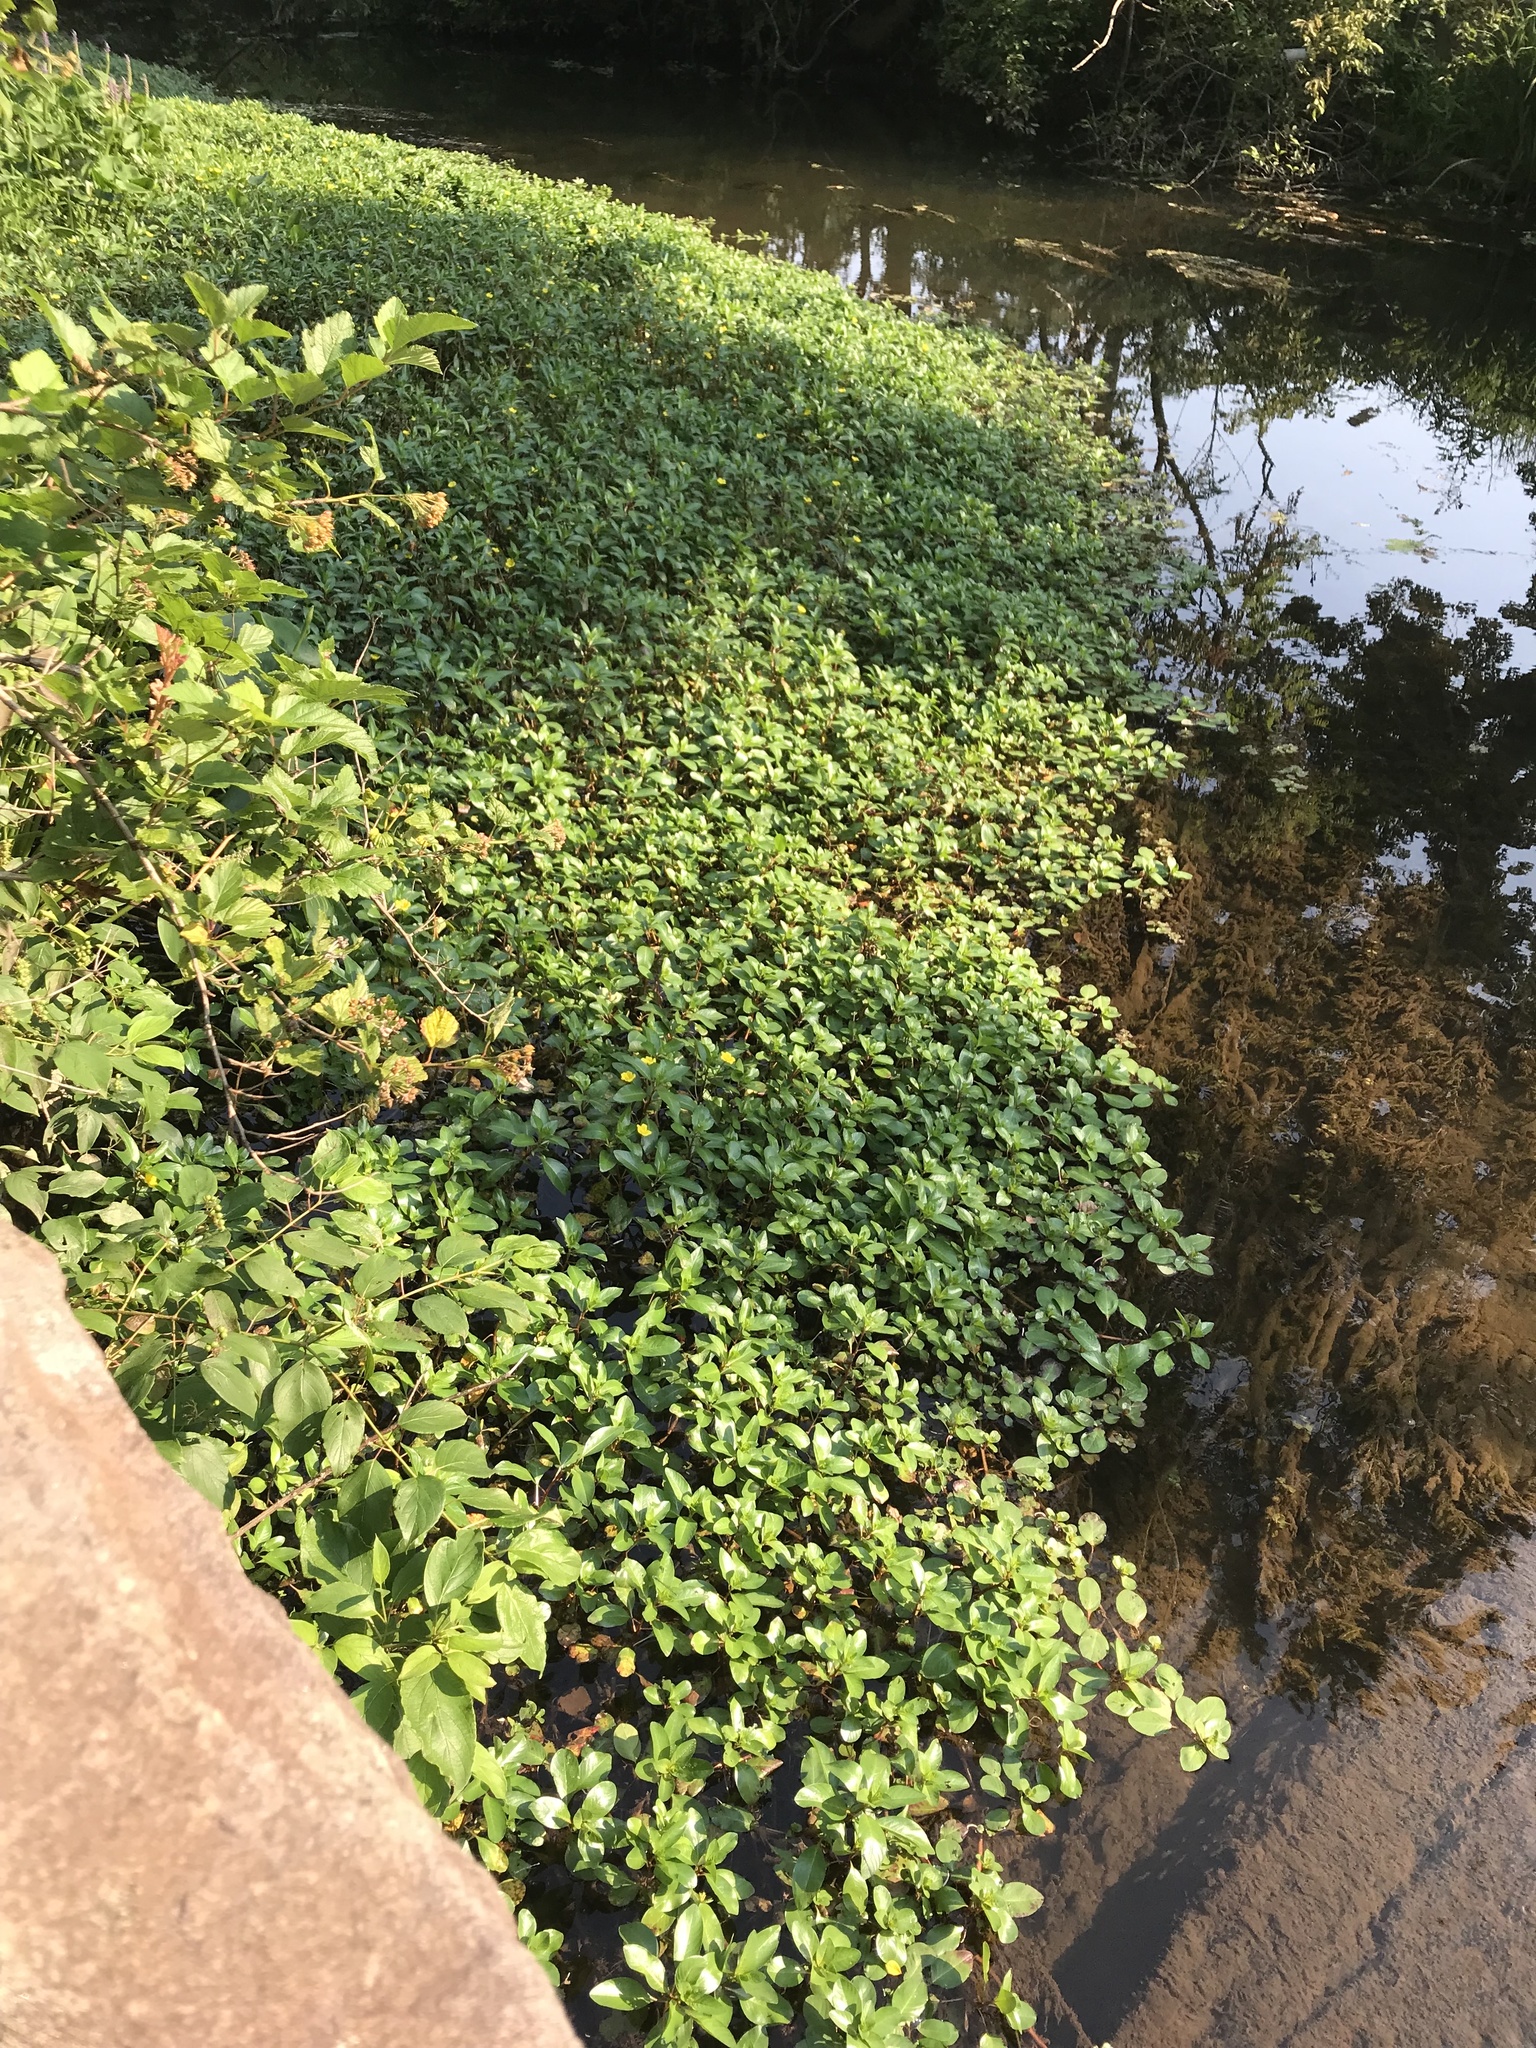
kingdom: Plantae
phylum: Tracheophyta
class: Magnoliopsida
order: Myrtales
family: Onagraceae
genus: Ludwigia
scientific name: Ludwigia peploides
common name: Floating primrose-willow
